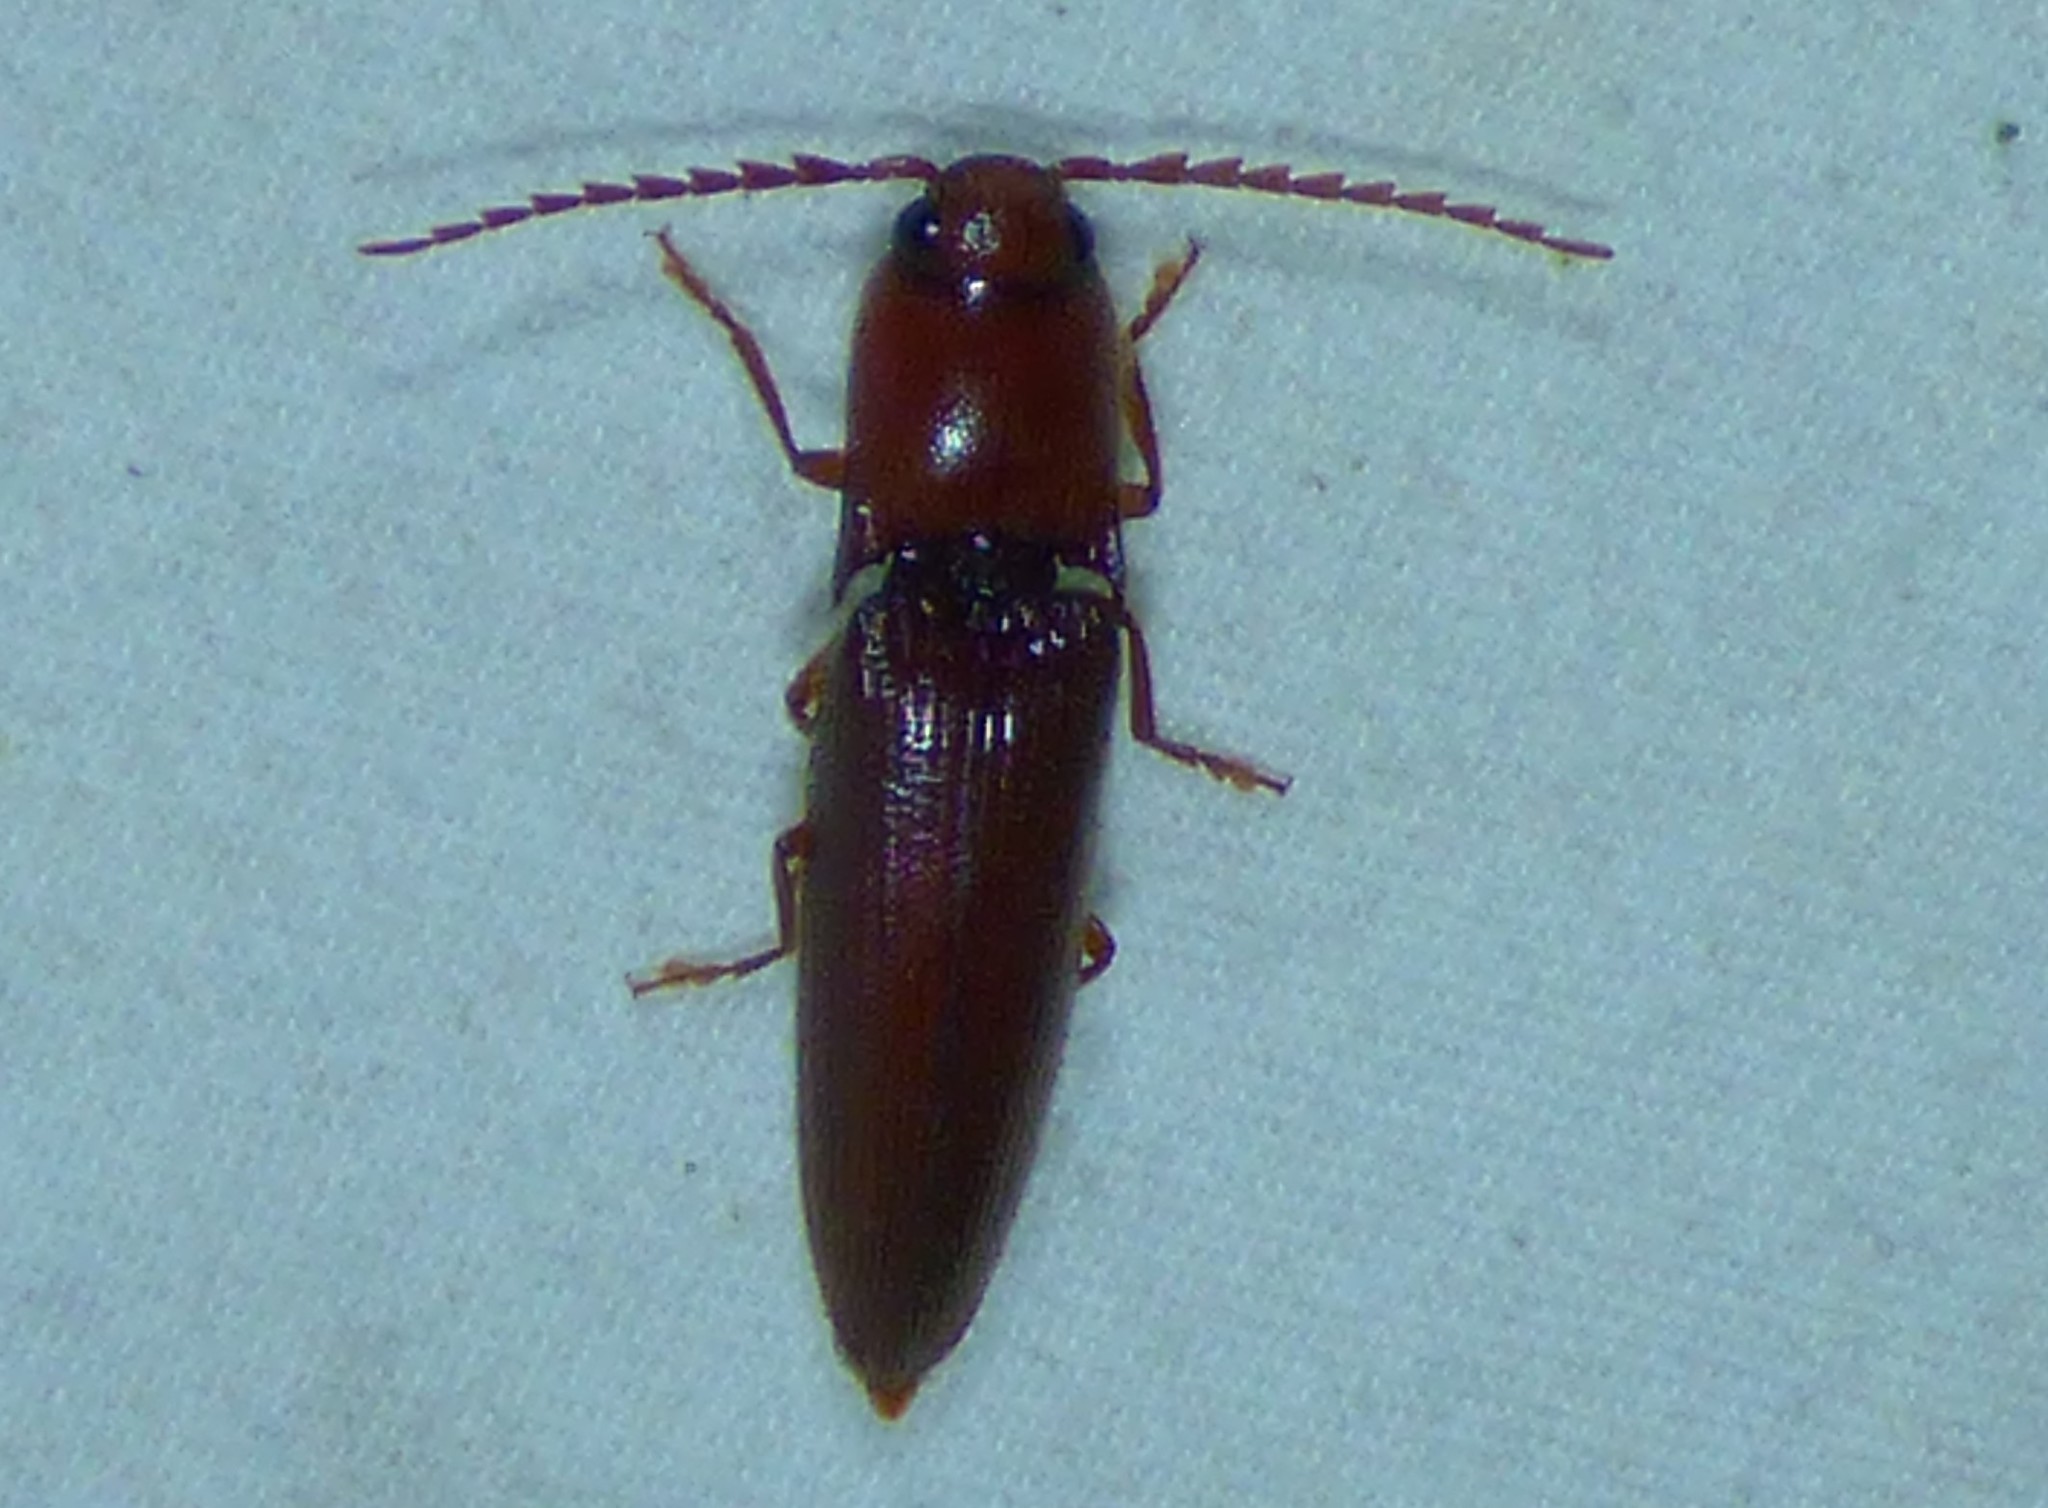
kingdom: Animalia
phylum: Arthropoda
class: Insecta
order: Coleoptera
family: Elateridae
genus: Dicrepidius
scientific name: Dicrepidius palmatus
